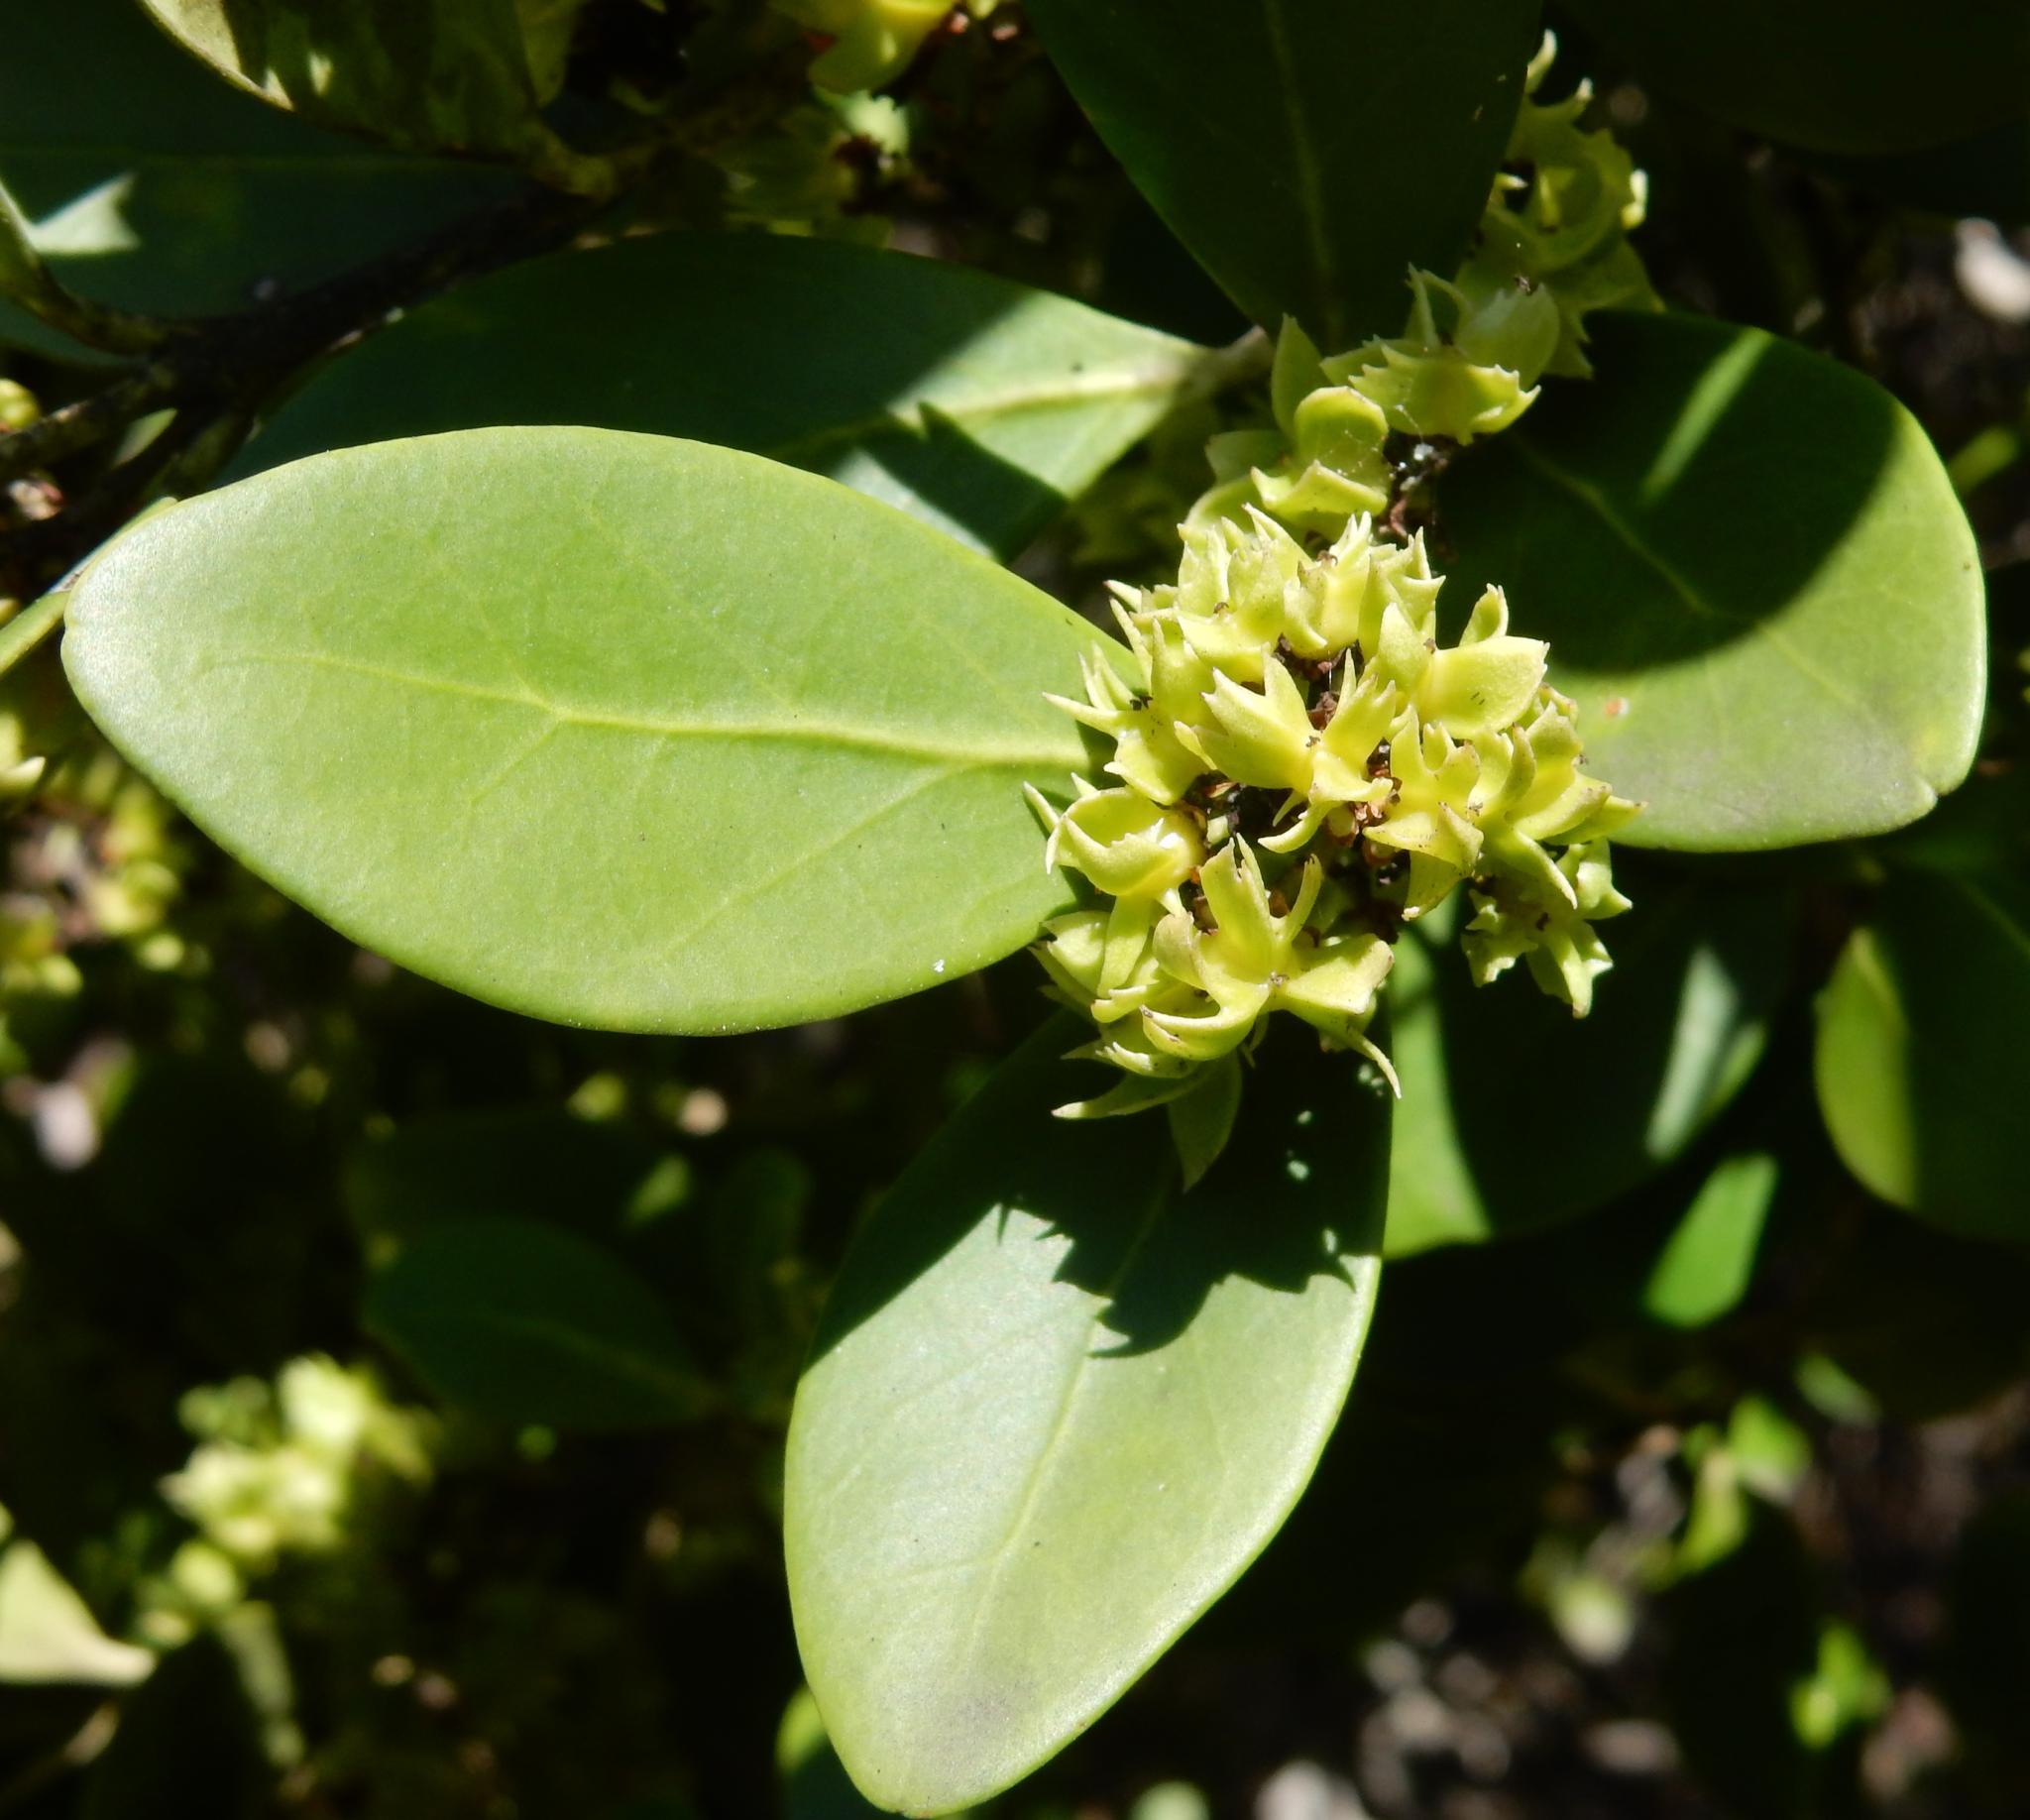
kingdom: Plantae
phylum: Tracheophyta
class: Magnoliopsida
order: Celastrales
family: Celastraceae
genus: Pterocelastrus
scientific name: Pterocelastrus tricuspidatus
